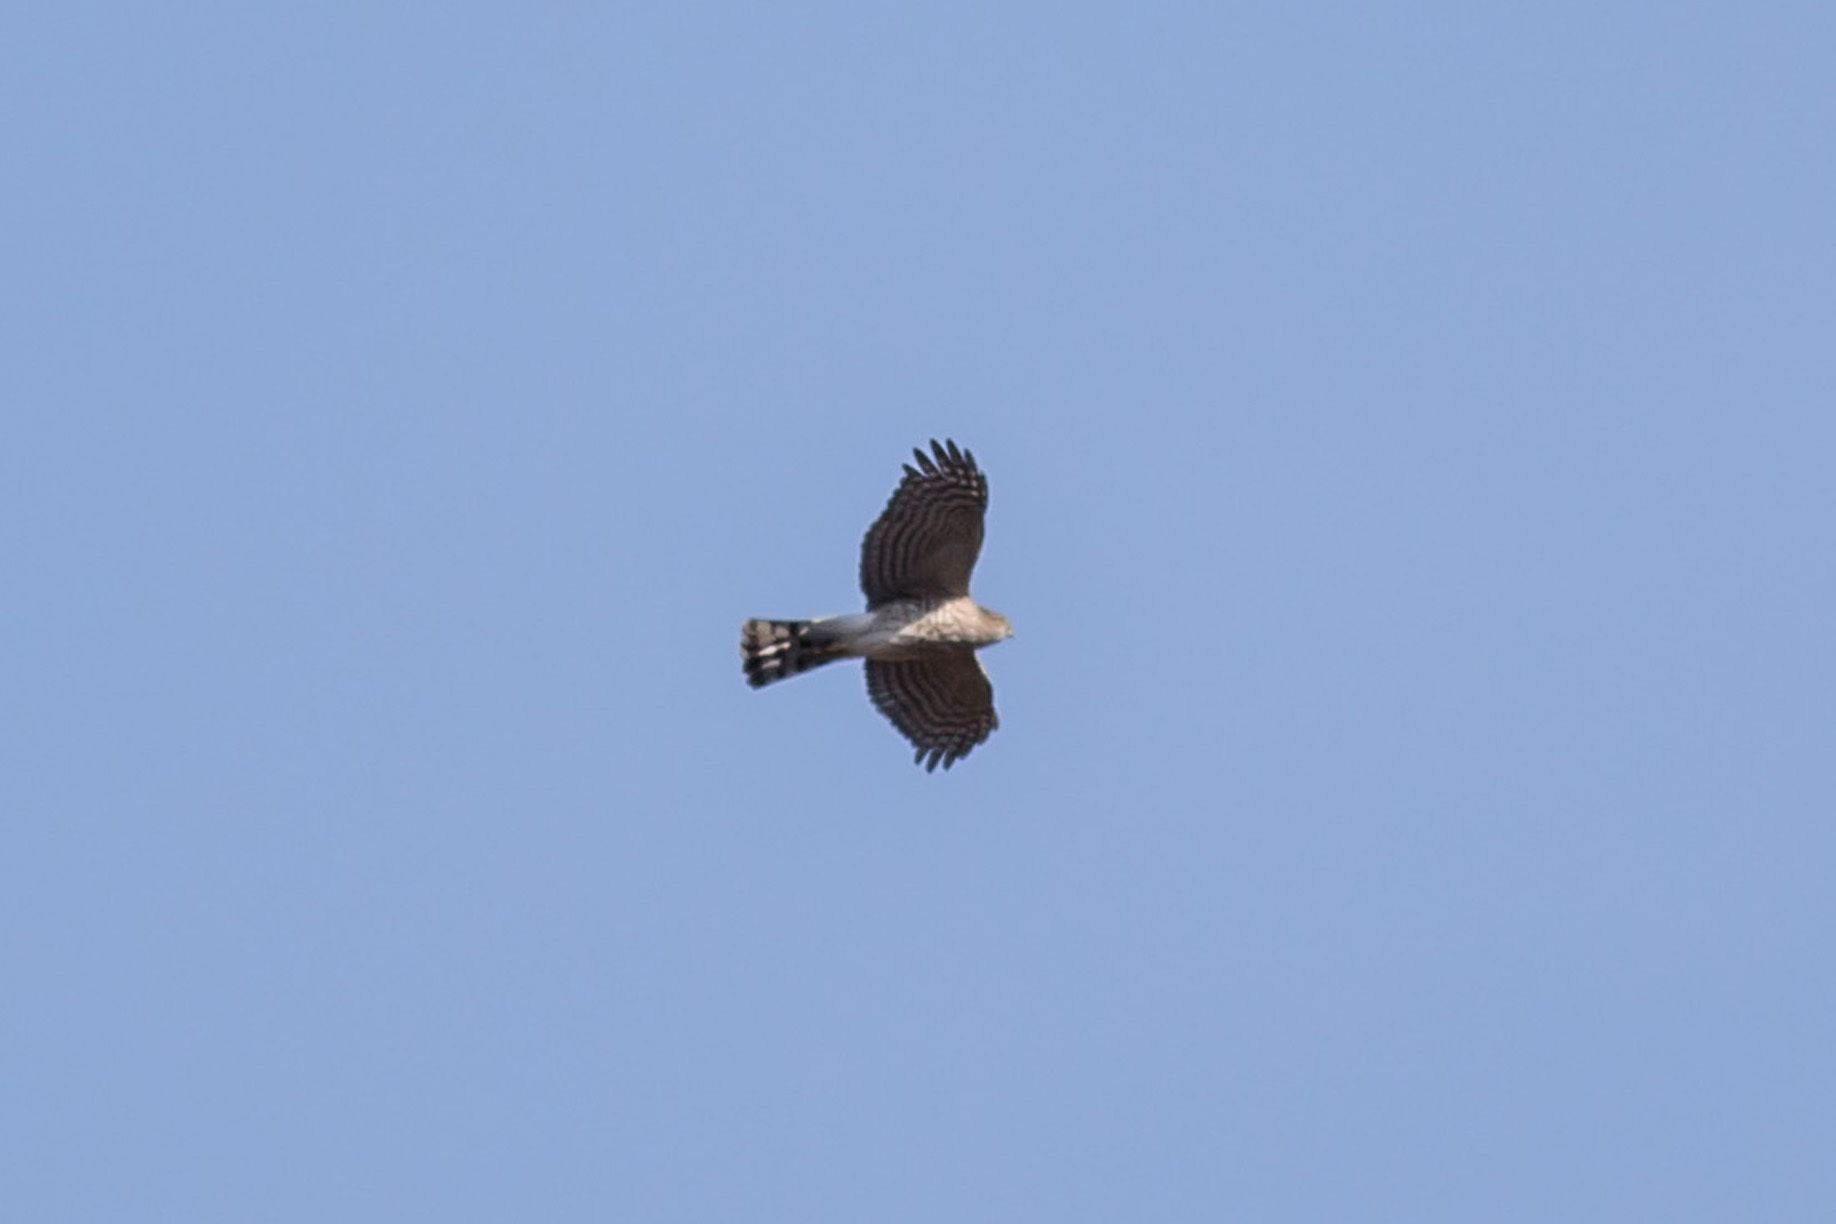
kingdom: Animalia
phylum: Chordata
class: Aves
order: Accipitriformes
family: Accipitridae
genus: Accipiter
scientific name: Accipiter striatus
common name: Sharp-shinned hawk
